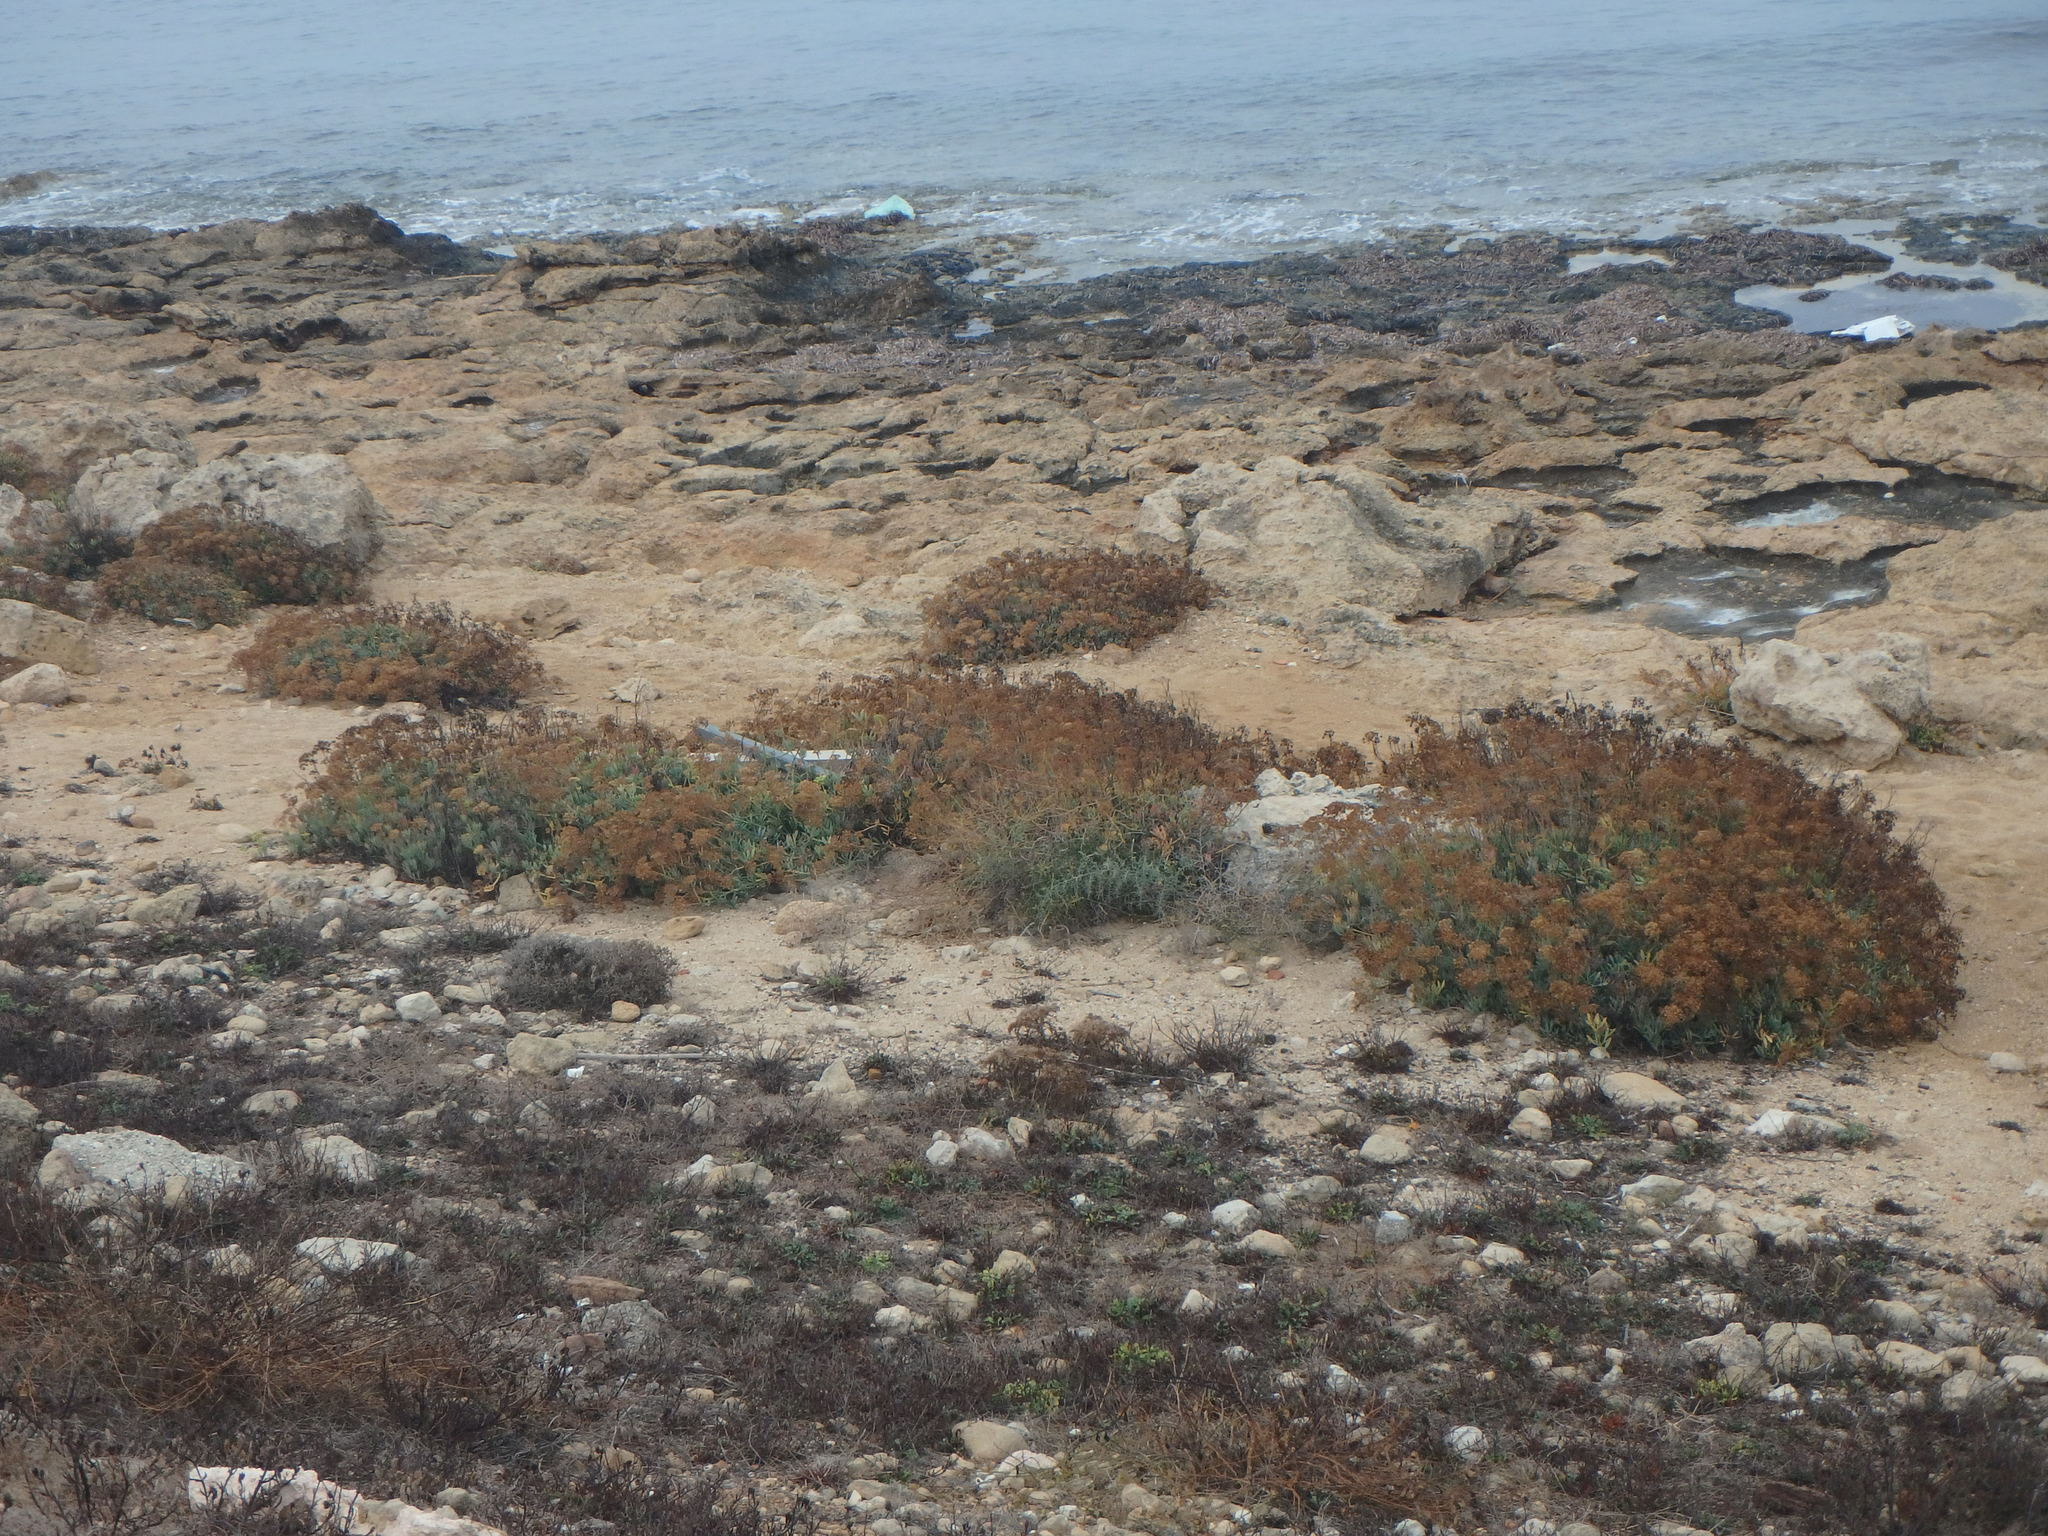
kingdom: Plantae
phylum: Tracheophyta
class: Magnoliopsida
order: Apiales
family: Apiaceae
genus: Crithmum
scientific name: Crithmum maritimum
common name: Rock samphire
